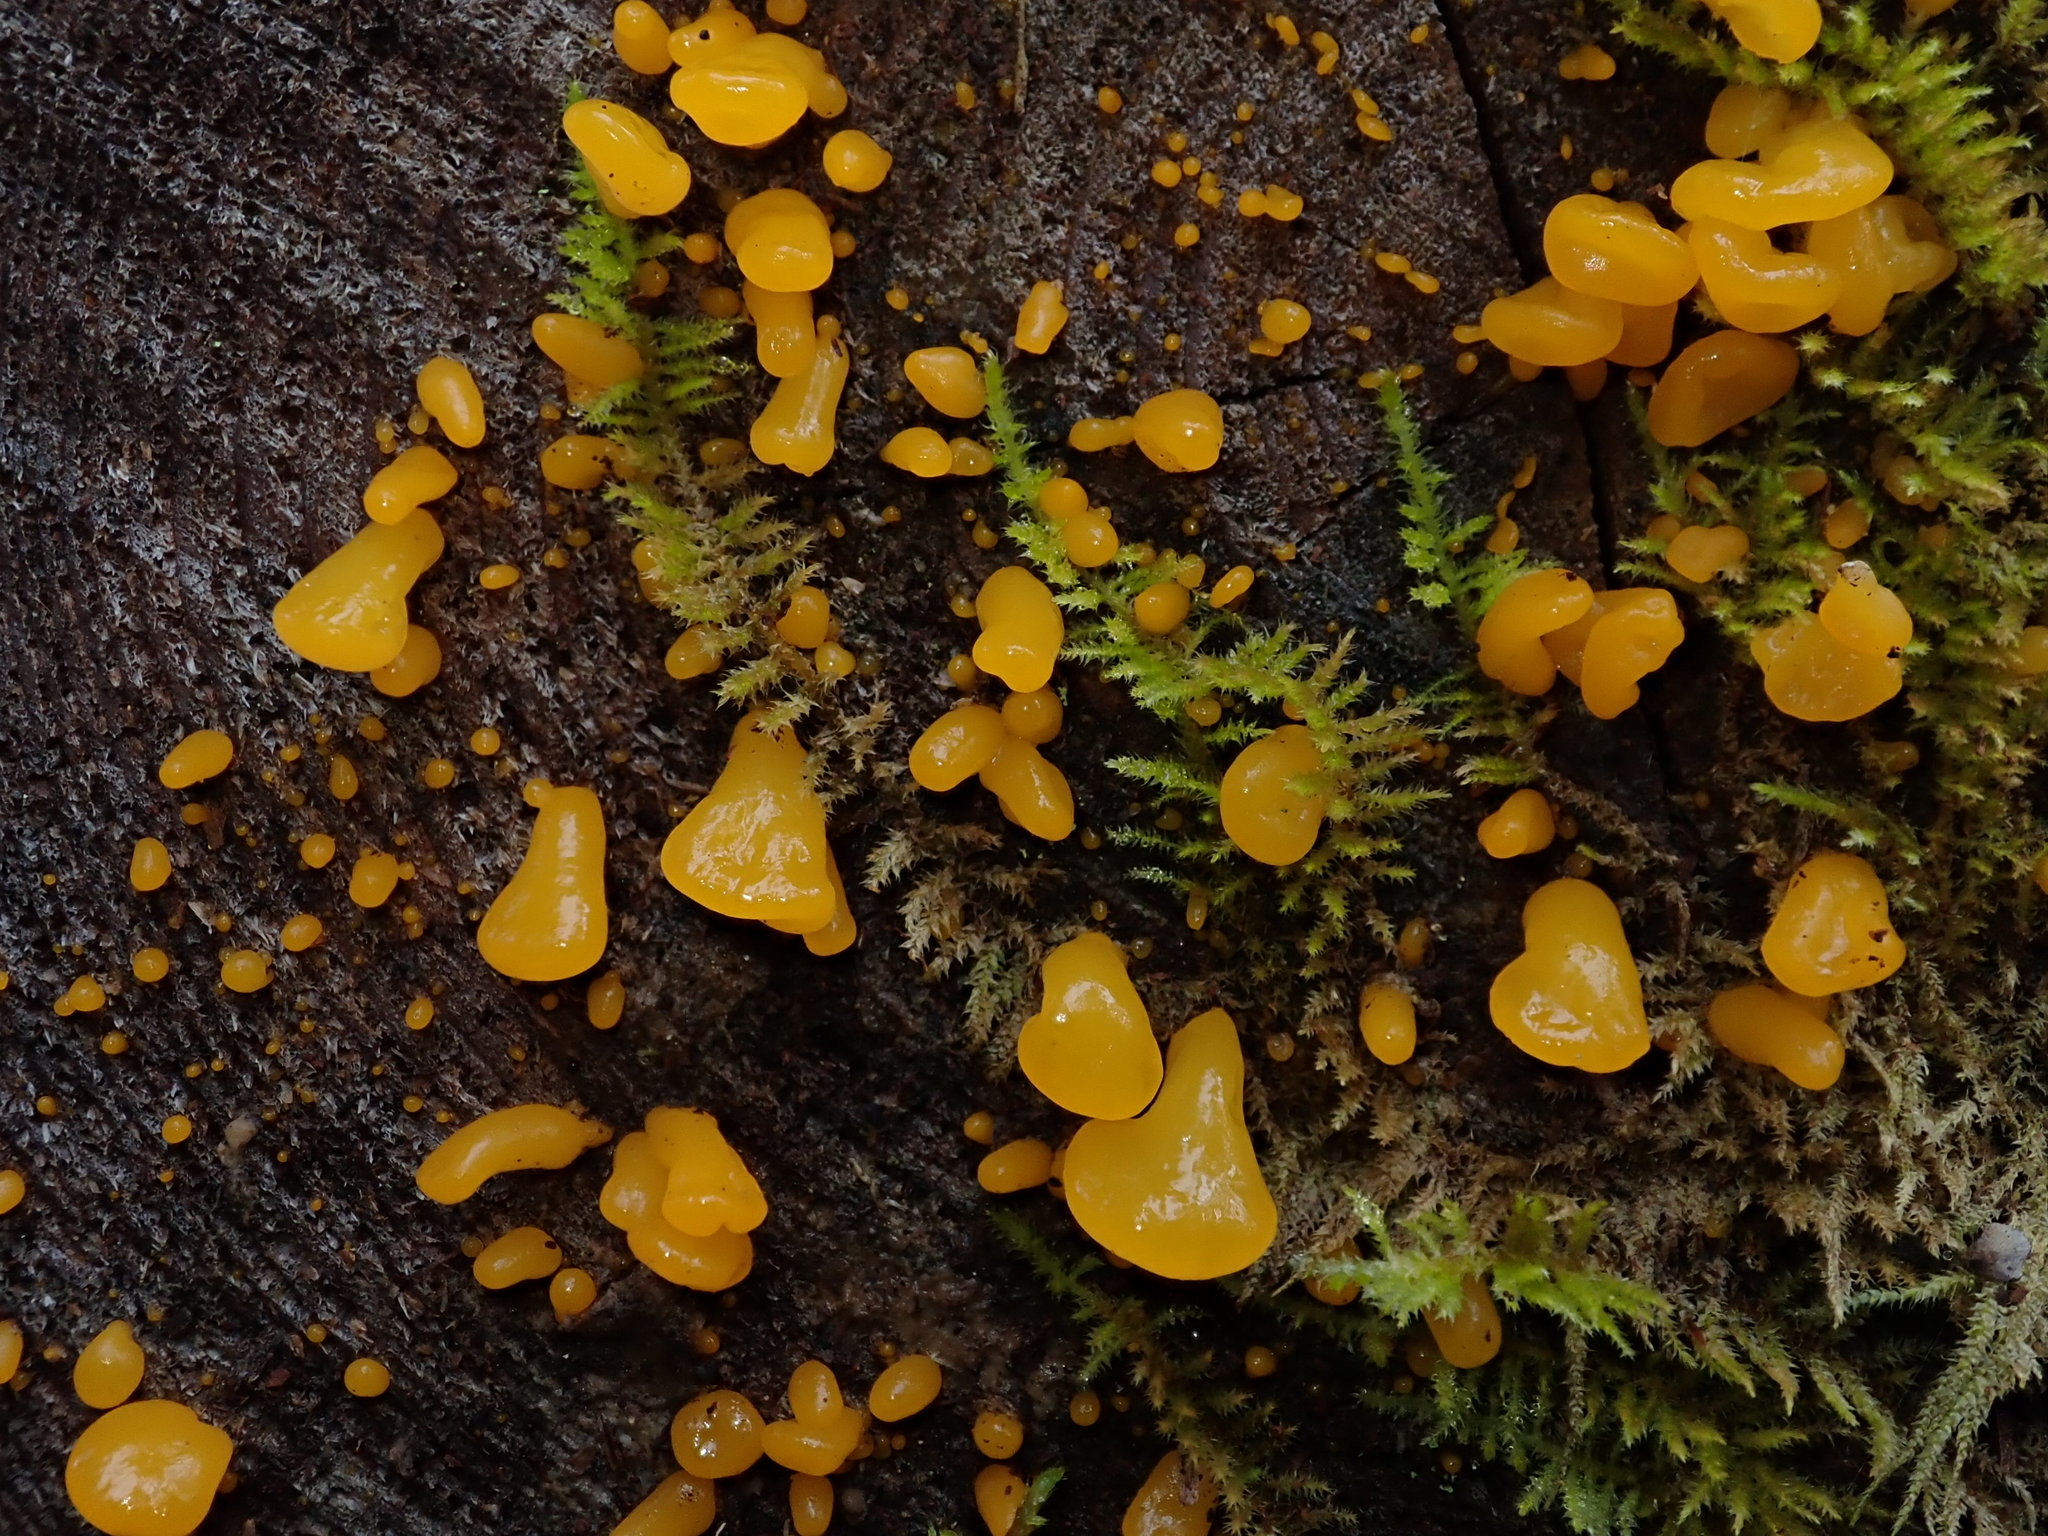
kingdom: Fungi
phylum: Basidiomycota
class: Dacrymycetes
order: Dacrymycetales
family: Dacrymycetaceae
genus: Guepiniopsis
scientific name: Guepiniopsis alpina
